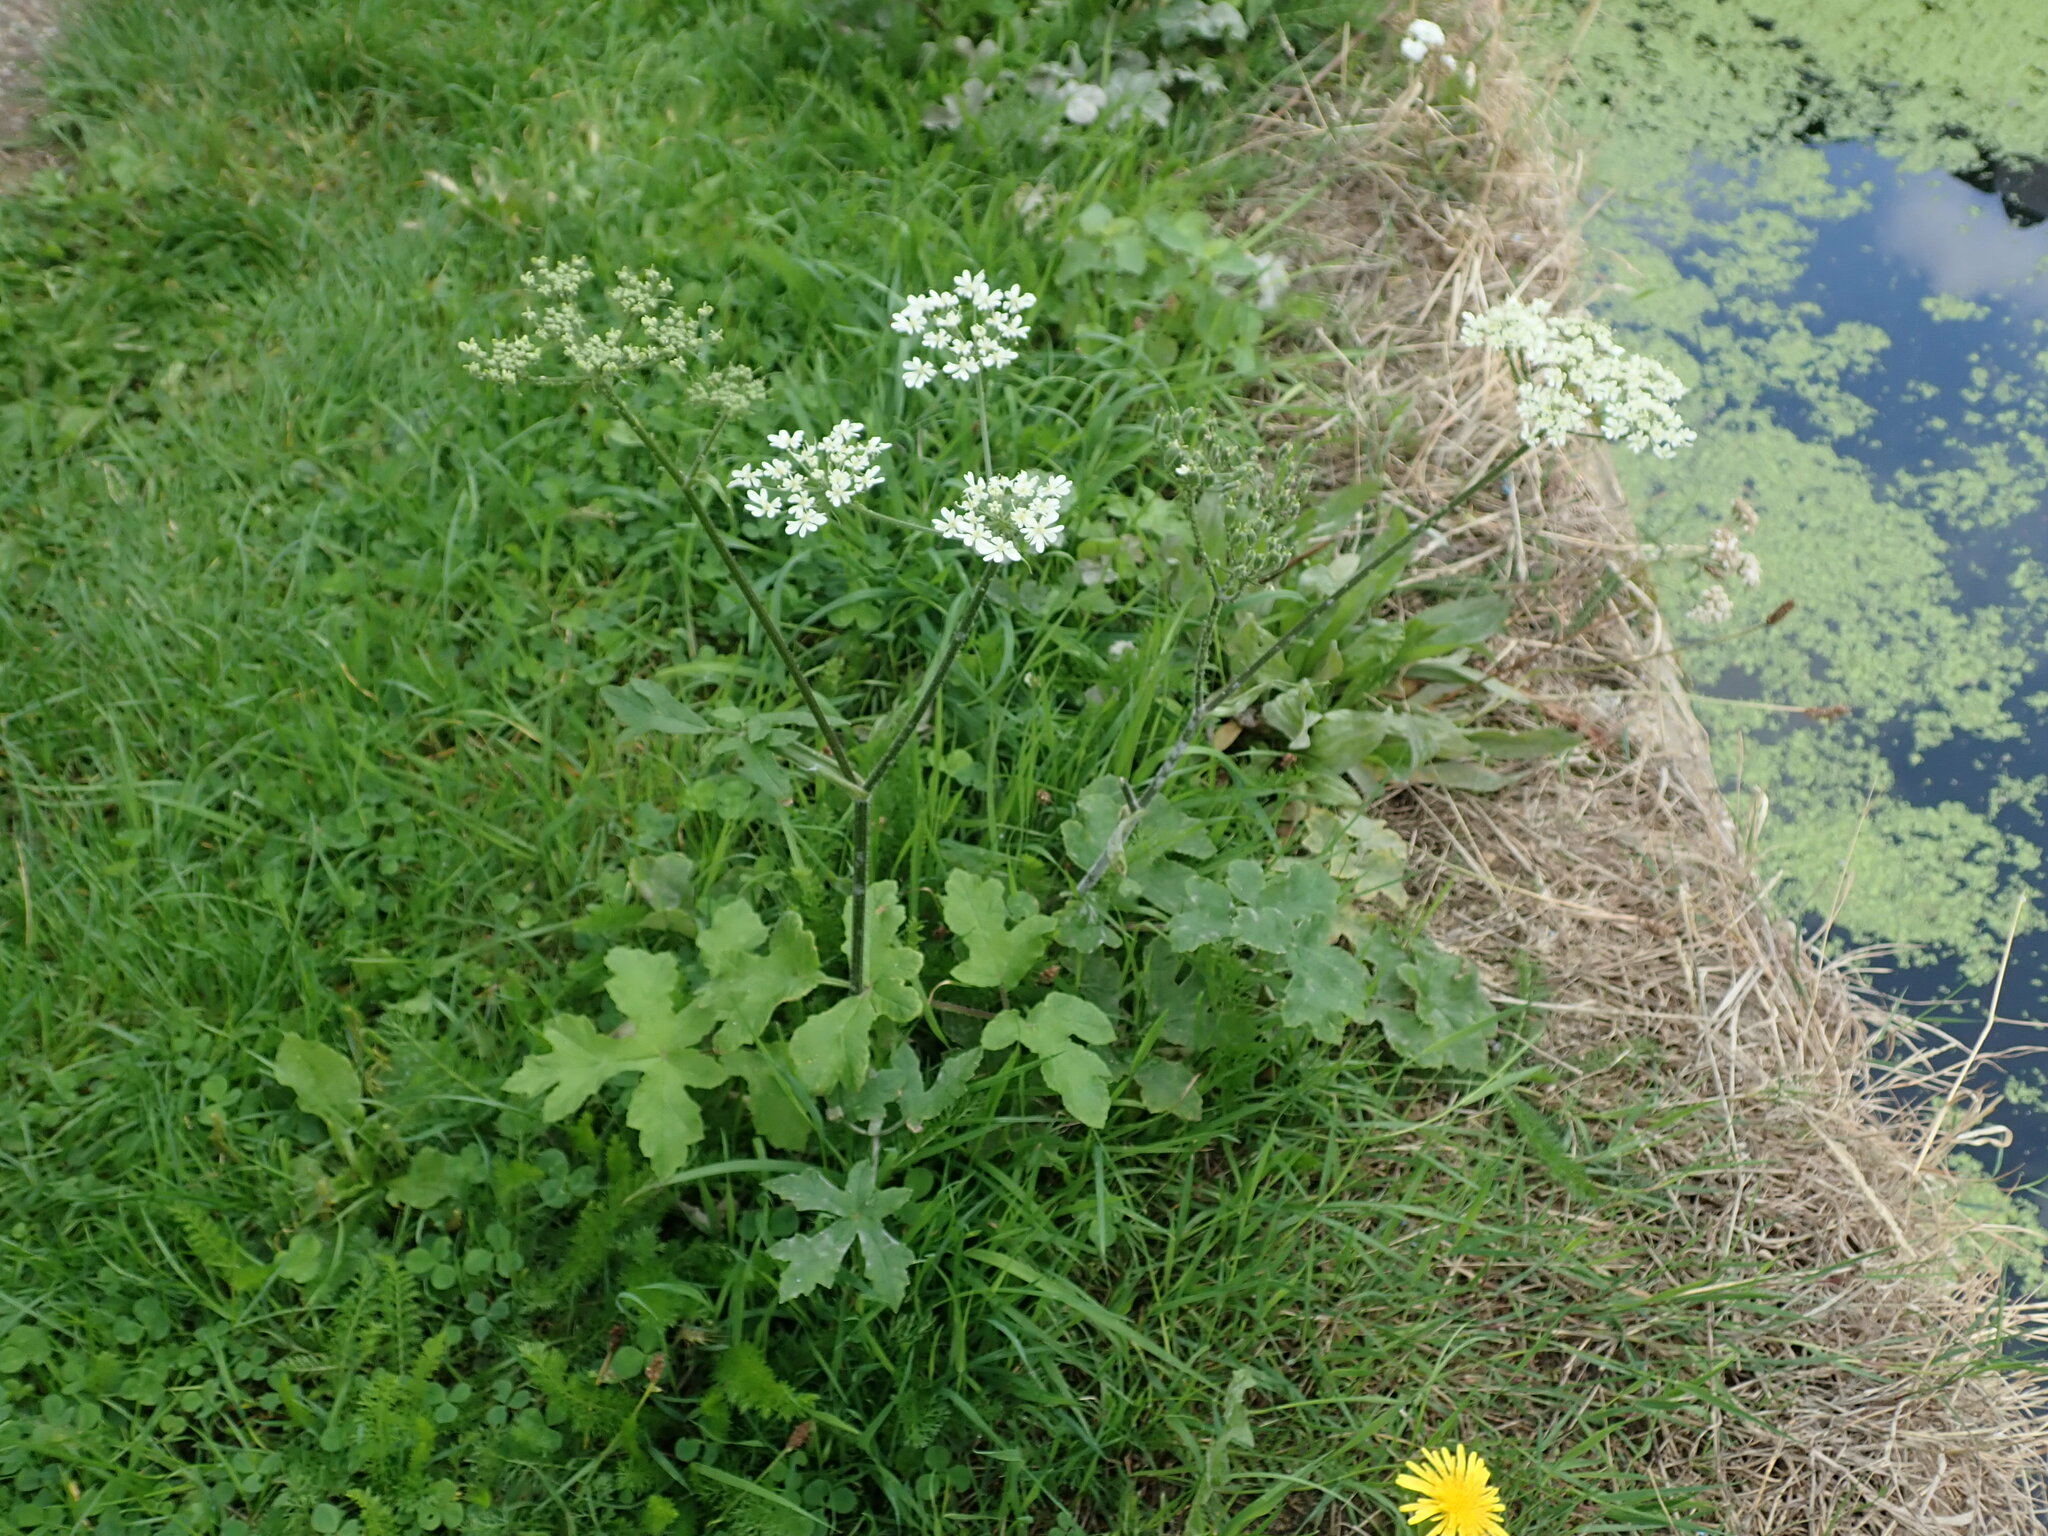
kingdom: Plantae
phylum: Tracheophyta
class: Magnoliopsida
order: Apiales
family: Apiaceae
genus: Heracleum
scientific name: Heracleum sphondylium
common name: Hogweed
